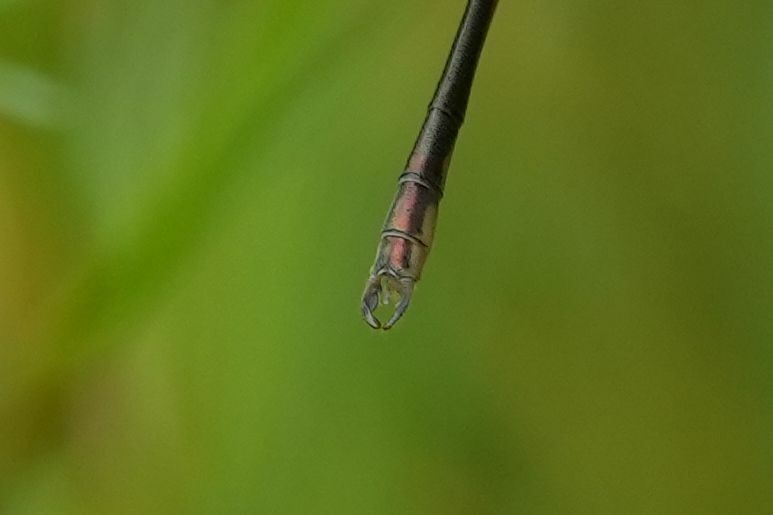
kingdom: Animalia
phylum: Arthropoda
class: Insecta
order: Odonata
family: Lestidae
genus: Lestes
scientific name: Lestes congener
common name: Spotted spreadwing
